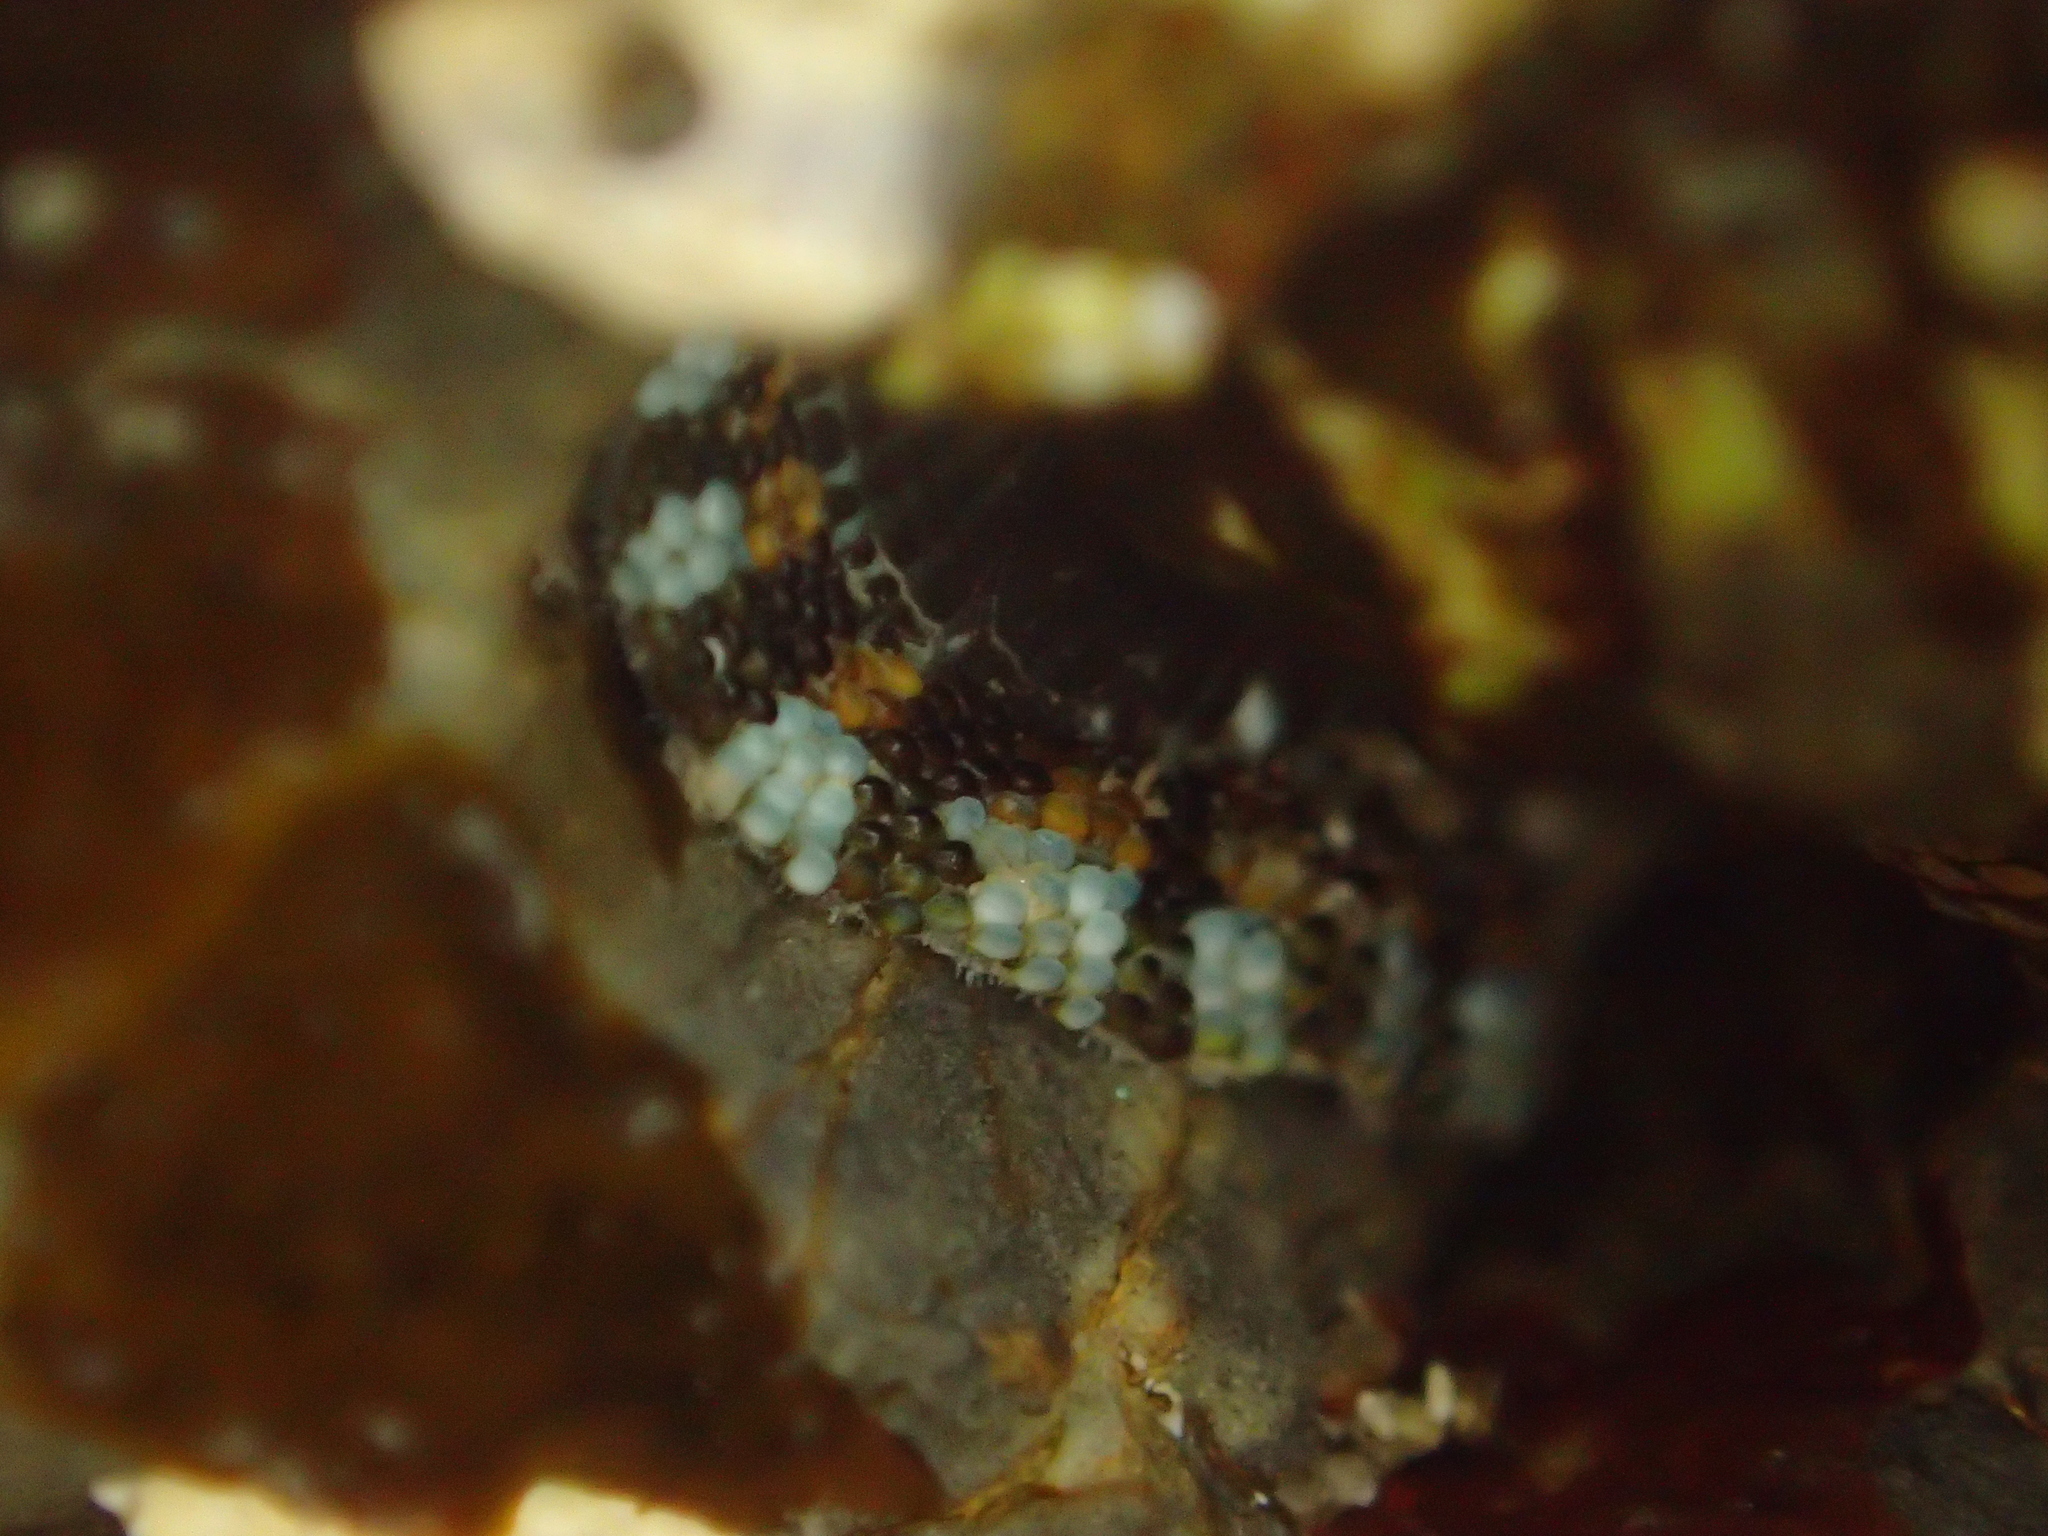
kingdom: Animalia
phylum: Mollusca
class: Polyplacophora
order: Chitonida
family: Chitonidae
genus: Sypharochiton
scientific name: Sypharochiton sinclairi
